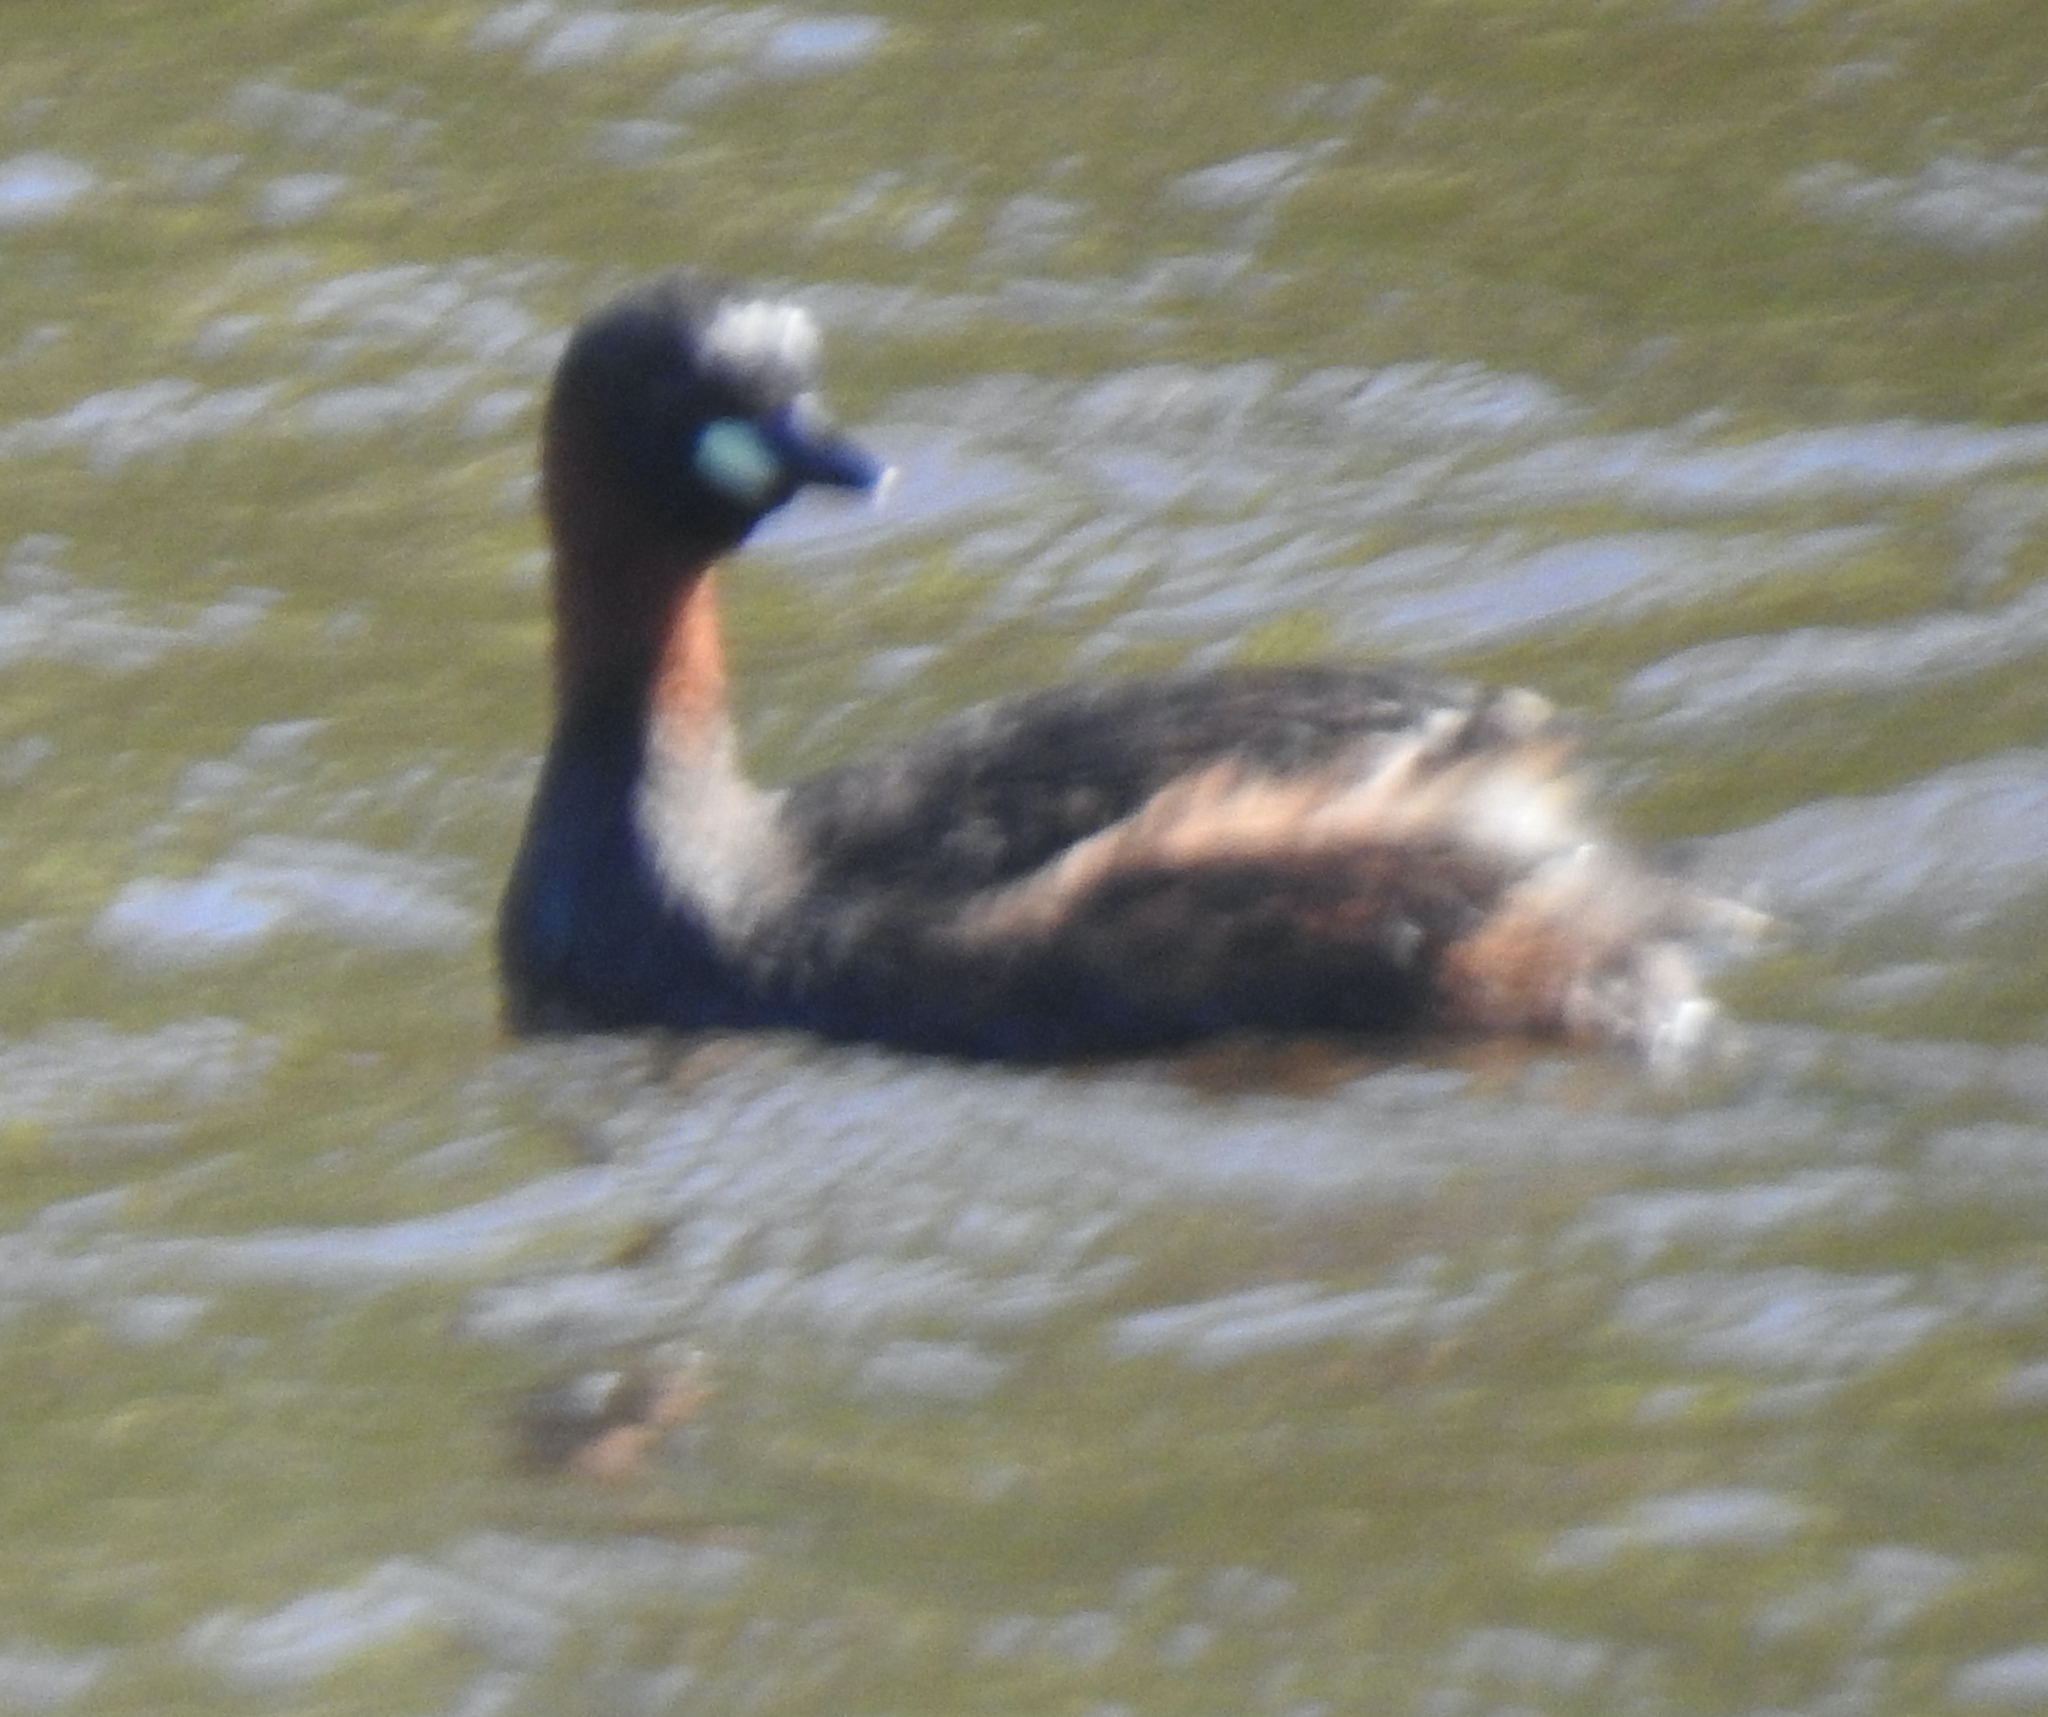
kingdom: Animalia
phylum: Chordata
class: Aves
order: Podicipediformes
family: Podicipedidae
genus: Tachybaptus
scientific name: Tachybaptus ruficollis
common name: Little grebe
